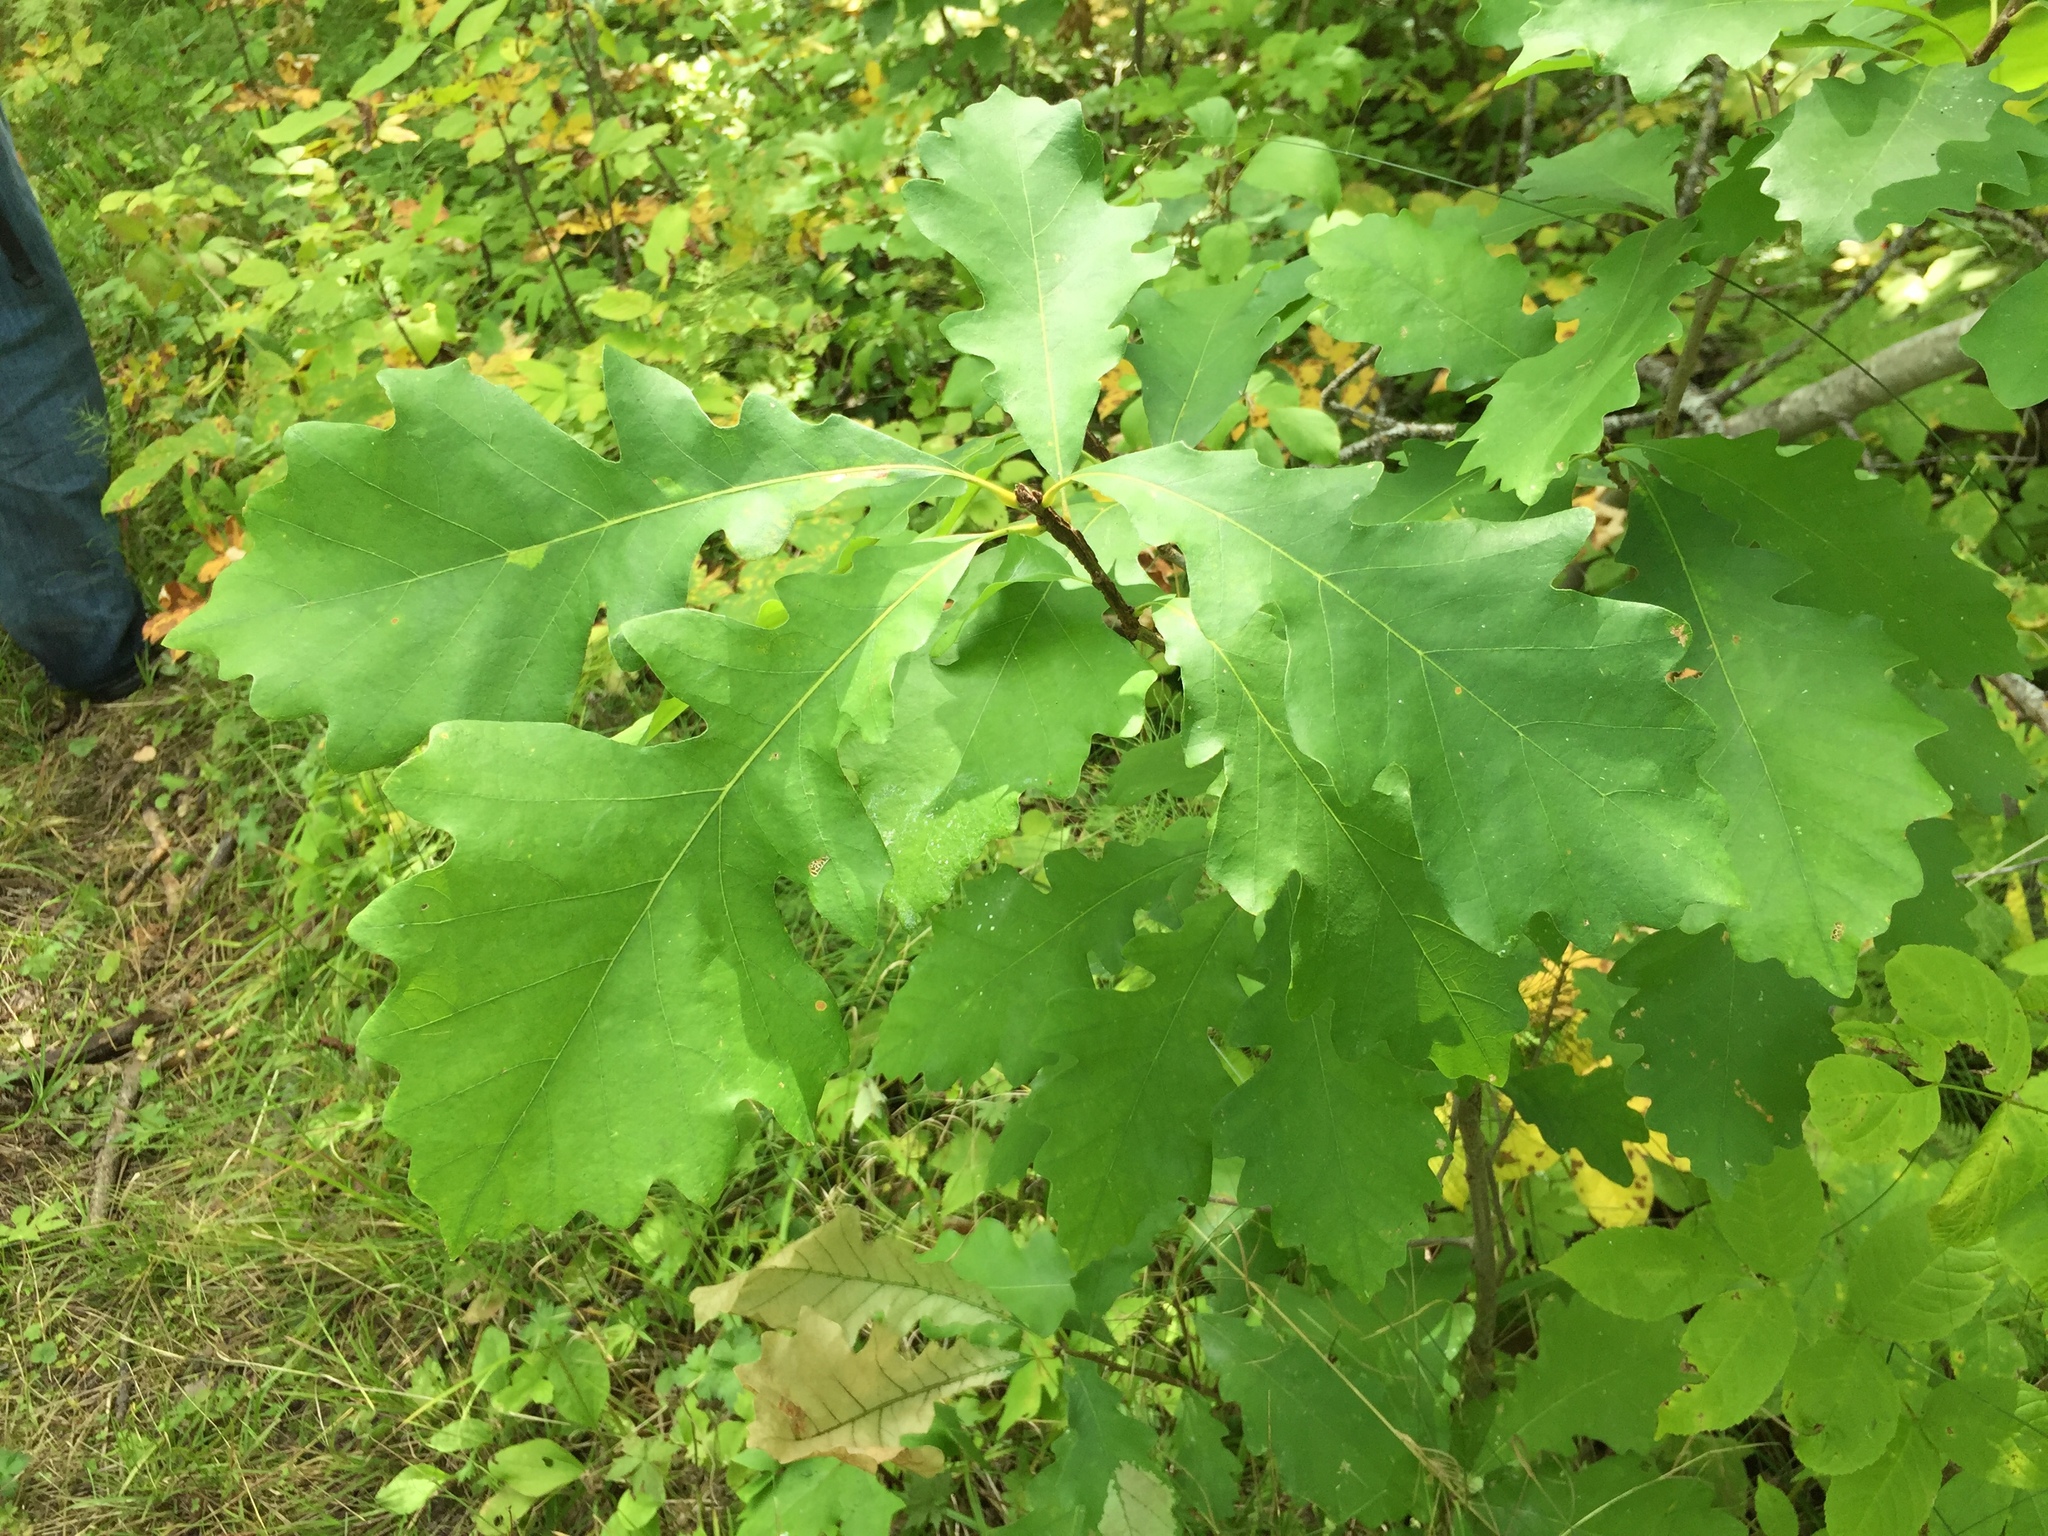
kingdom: Plantae
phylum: Tracheophyta
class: Magnoliopsida
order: Fagales
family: Fagaceae
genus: Quercus
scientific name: Quercus macrocarpa
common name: Bur oak
